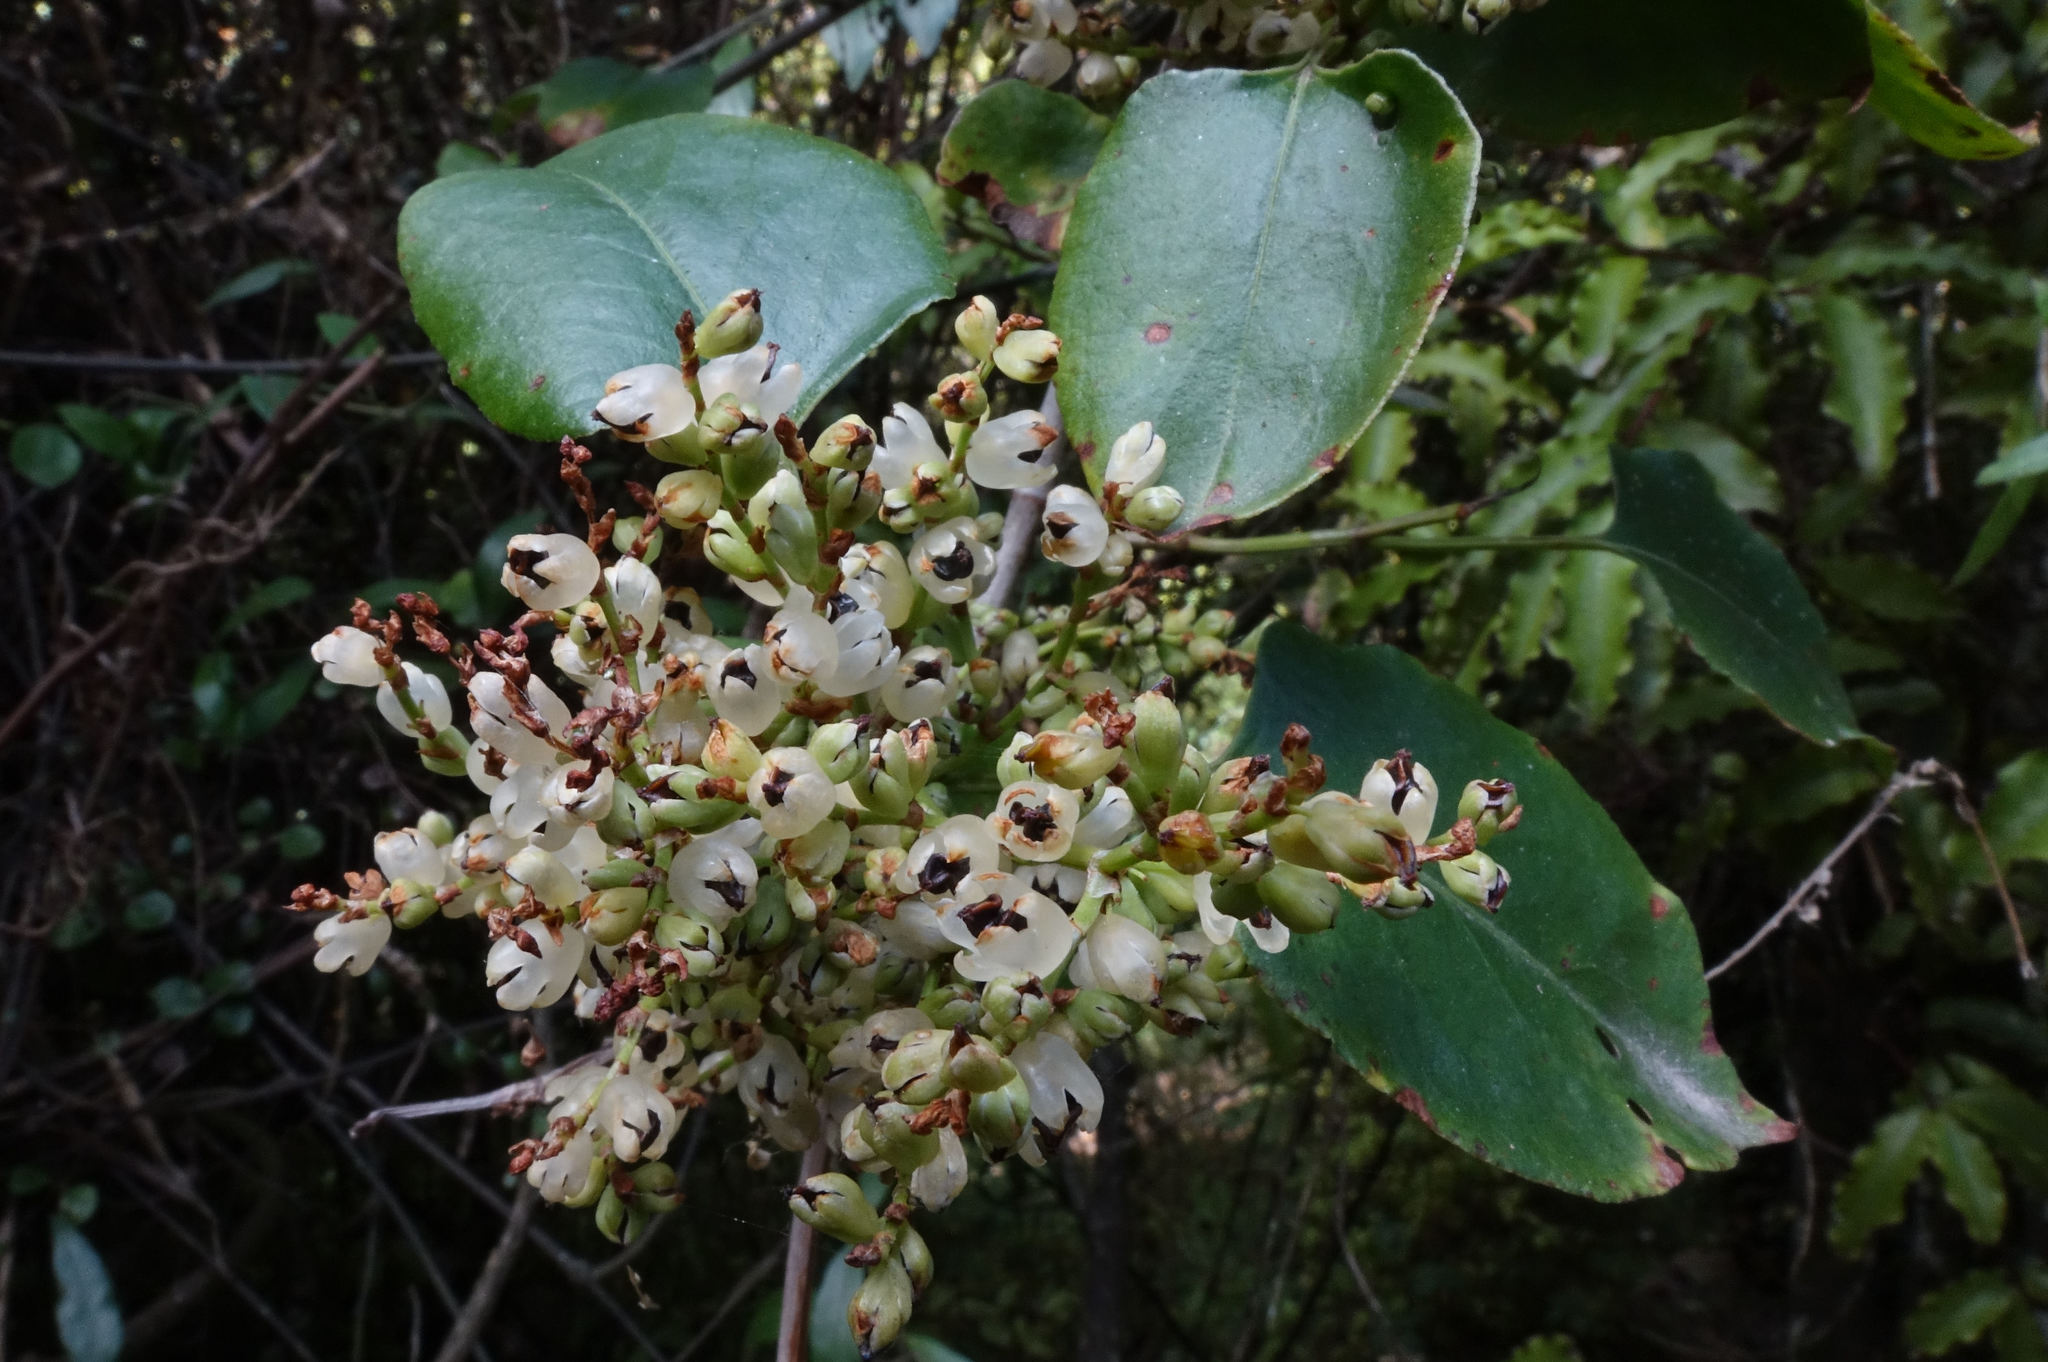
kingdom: Plantae
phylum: Tracheophyta
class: Magnoliopsida
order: Caryophyllales
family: Polygonaceae
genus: Muehlenbeckia
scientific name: Muehlenbeckia australis
